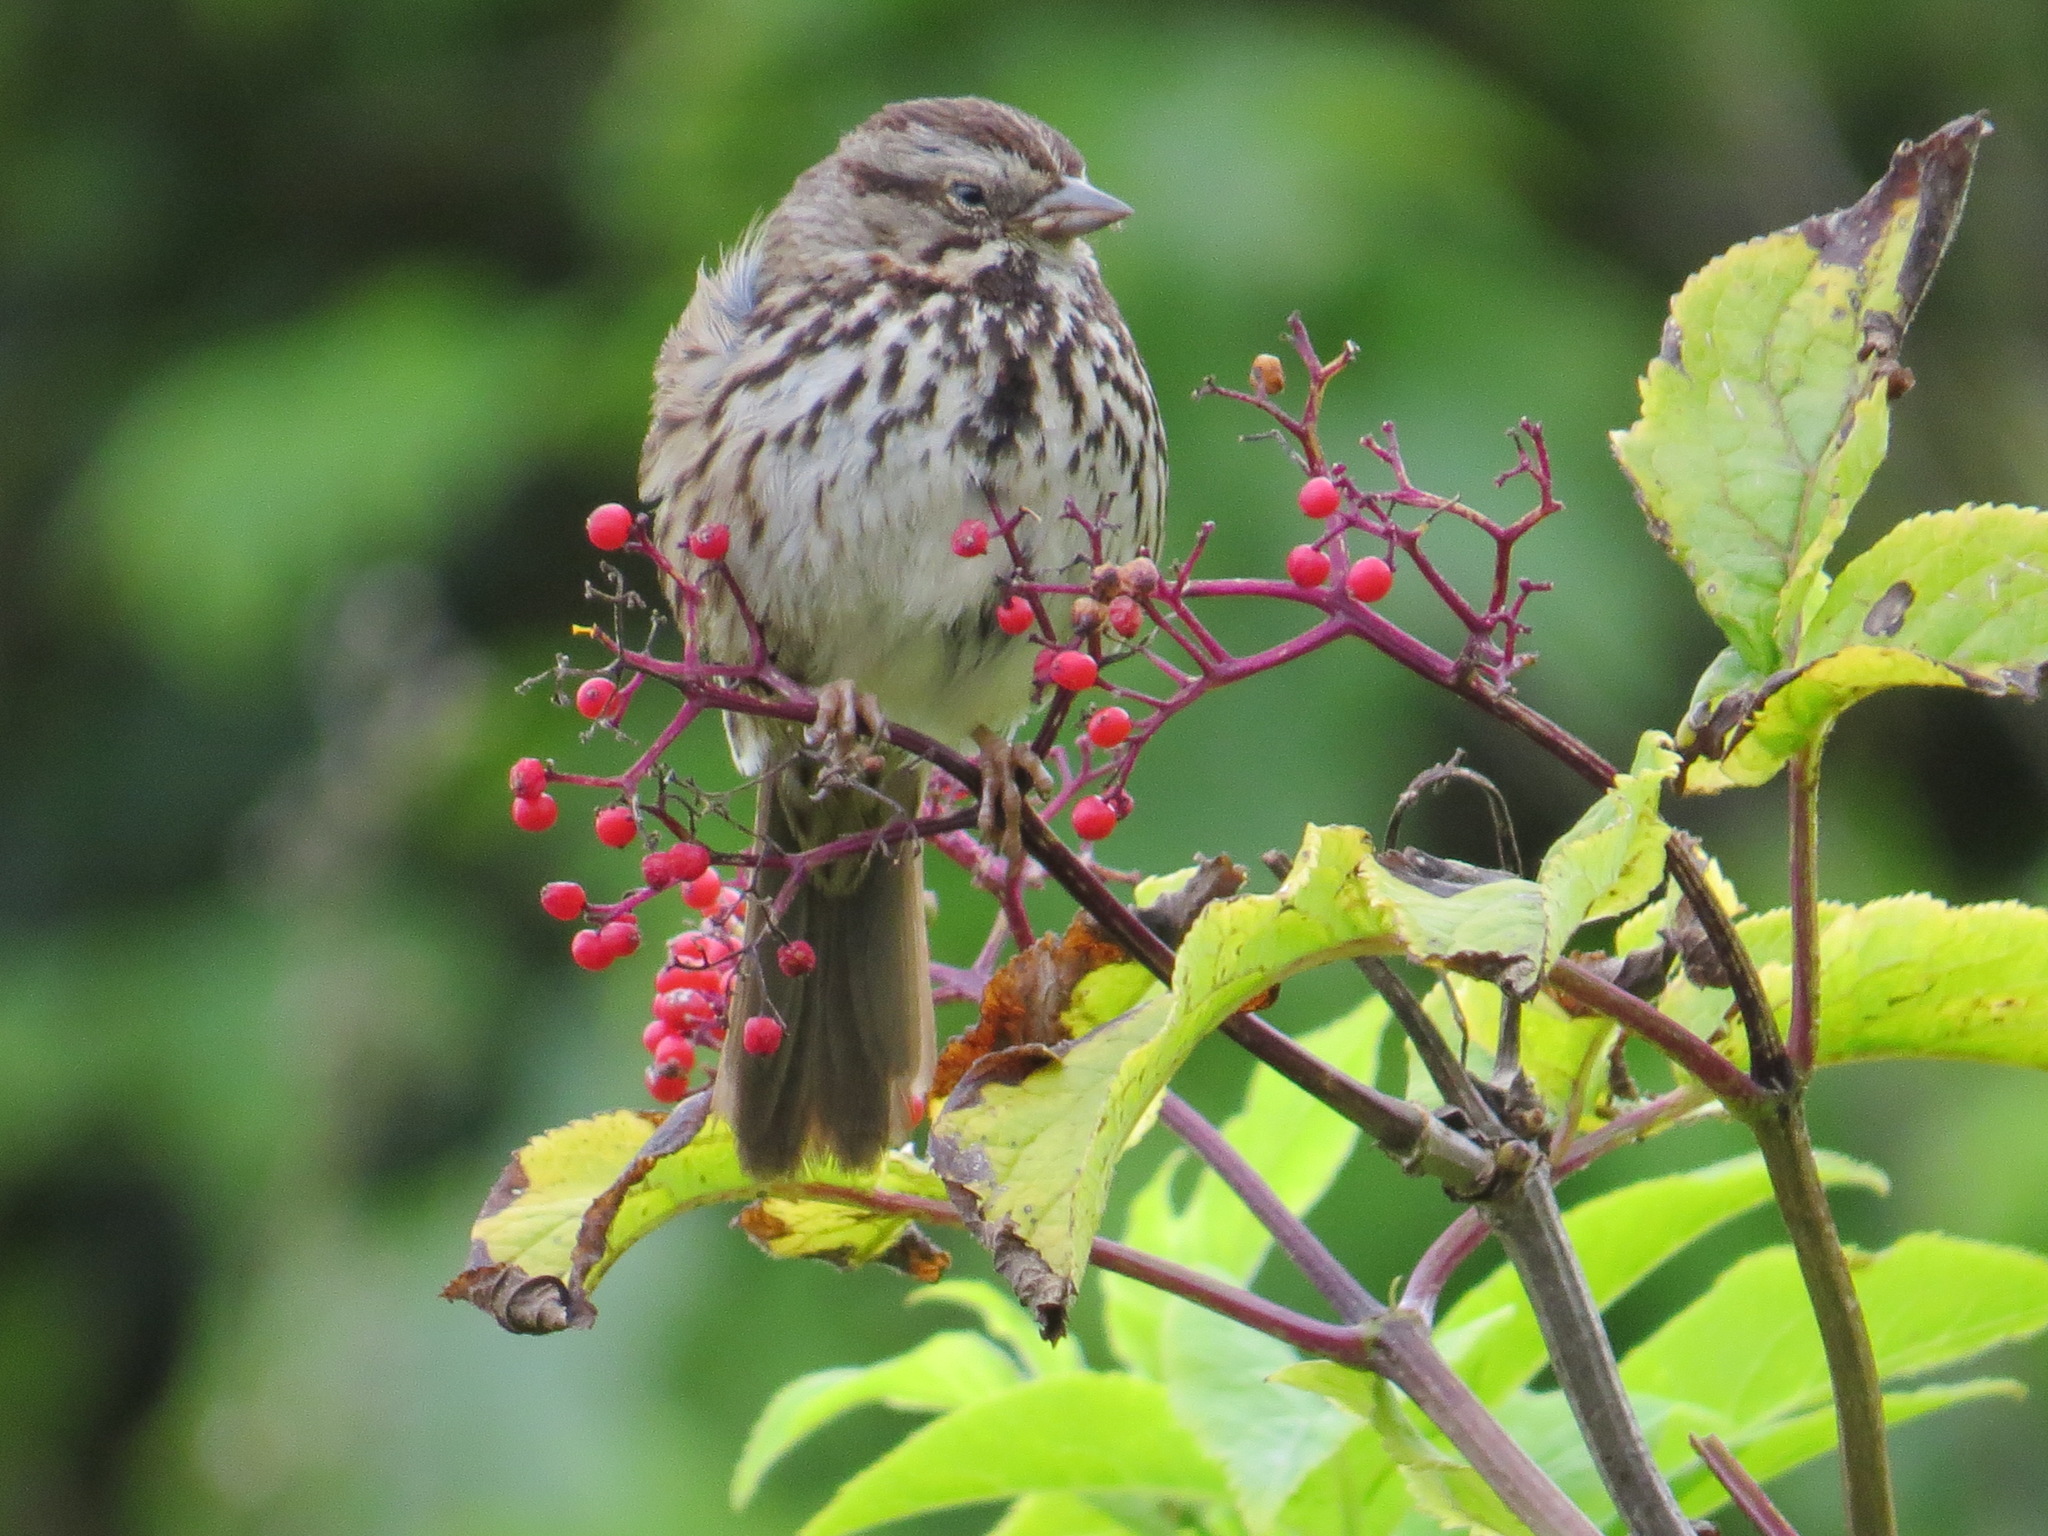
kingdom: Animalia
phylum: Chordata
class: Aves
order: Passeriformes
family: Passerellidae
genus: Melospiza
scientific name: Melospiza melodia
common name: Song sparrow
